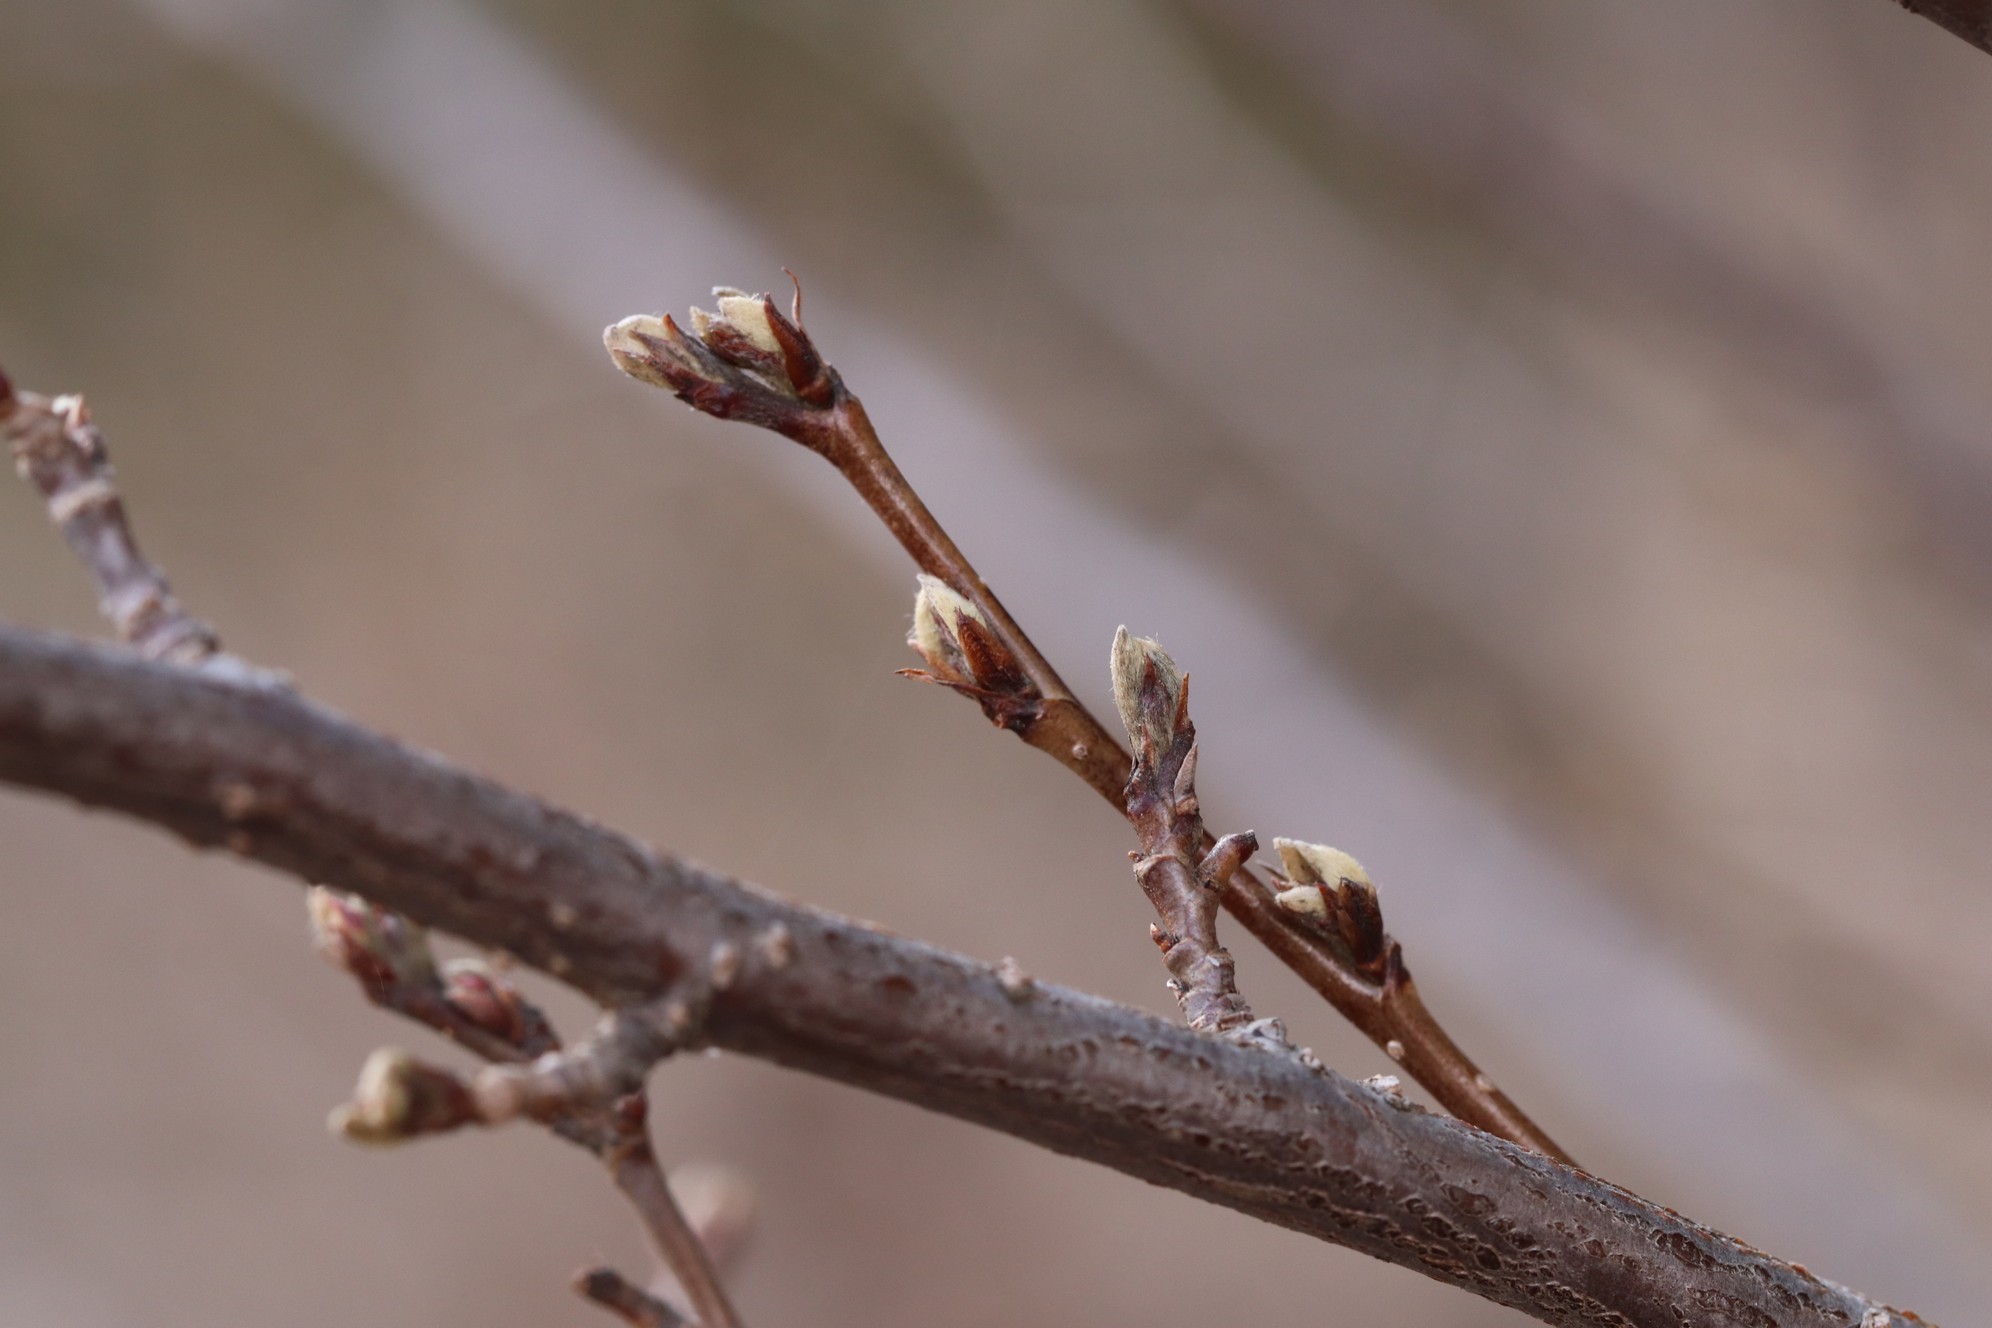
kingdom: Plantae
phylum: Tracheophyta
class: Magnoliopsida
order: Rosales
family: Rosaceae
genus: Cotoneaster
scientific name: Cotoneaster melanocarpus
